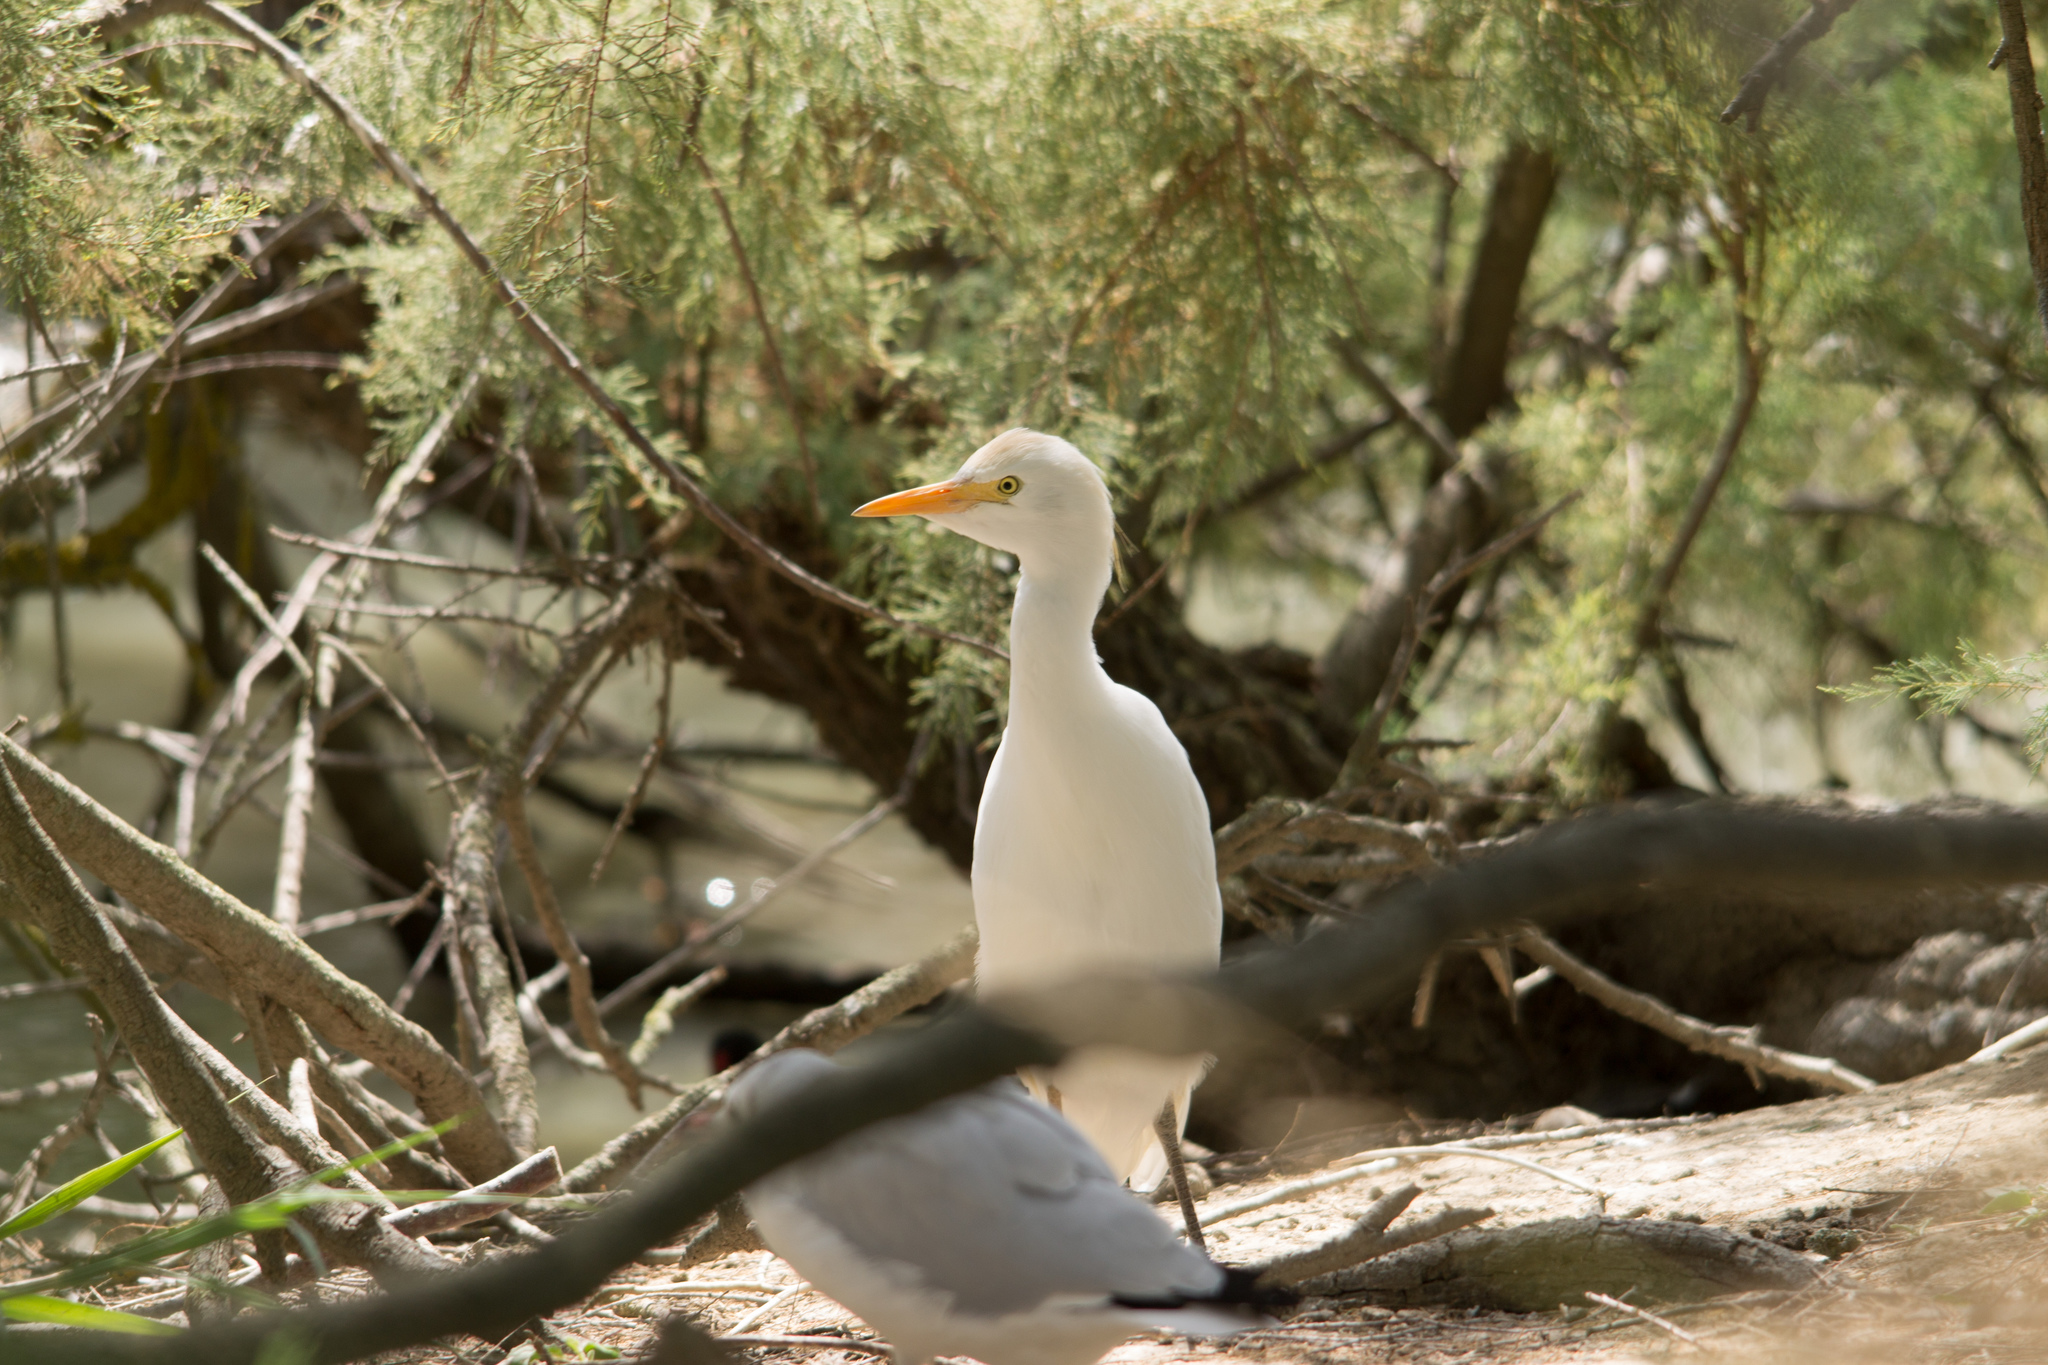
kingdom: Animalia
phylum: Chordata
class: Aves
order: Pelecaniformes
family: Ardeidae
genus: Bubulcus
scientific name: Bubulcus ibis
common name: Cattle egret
